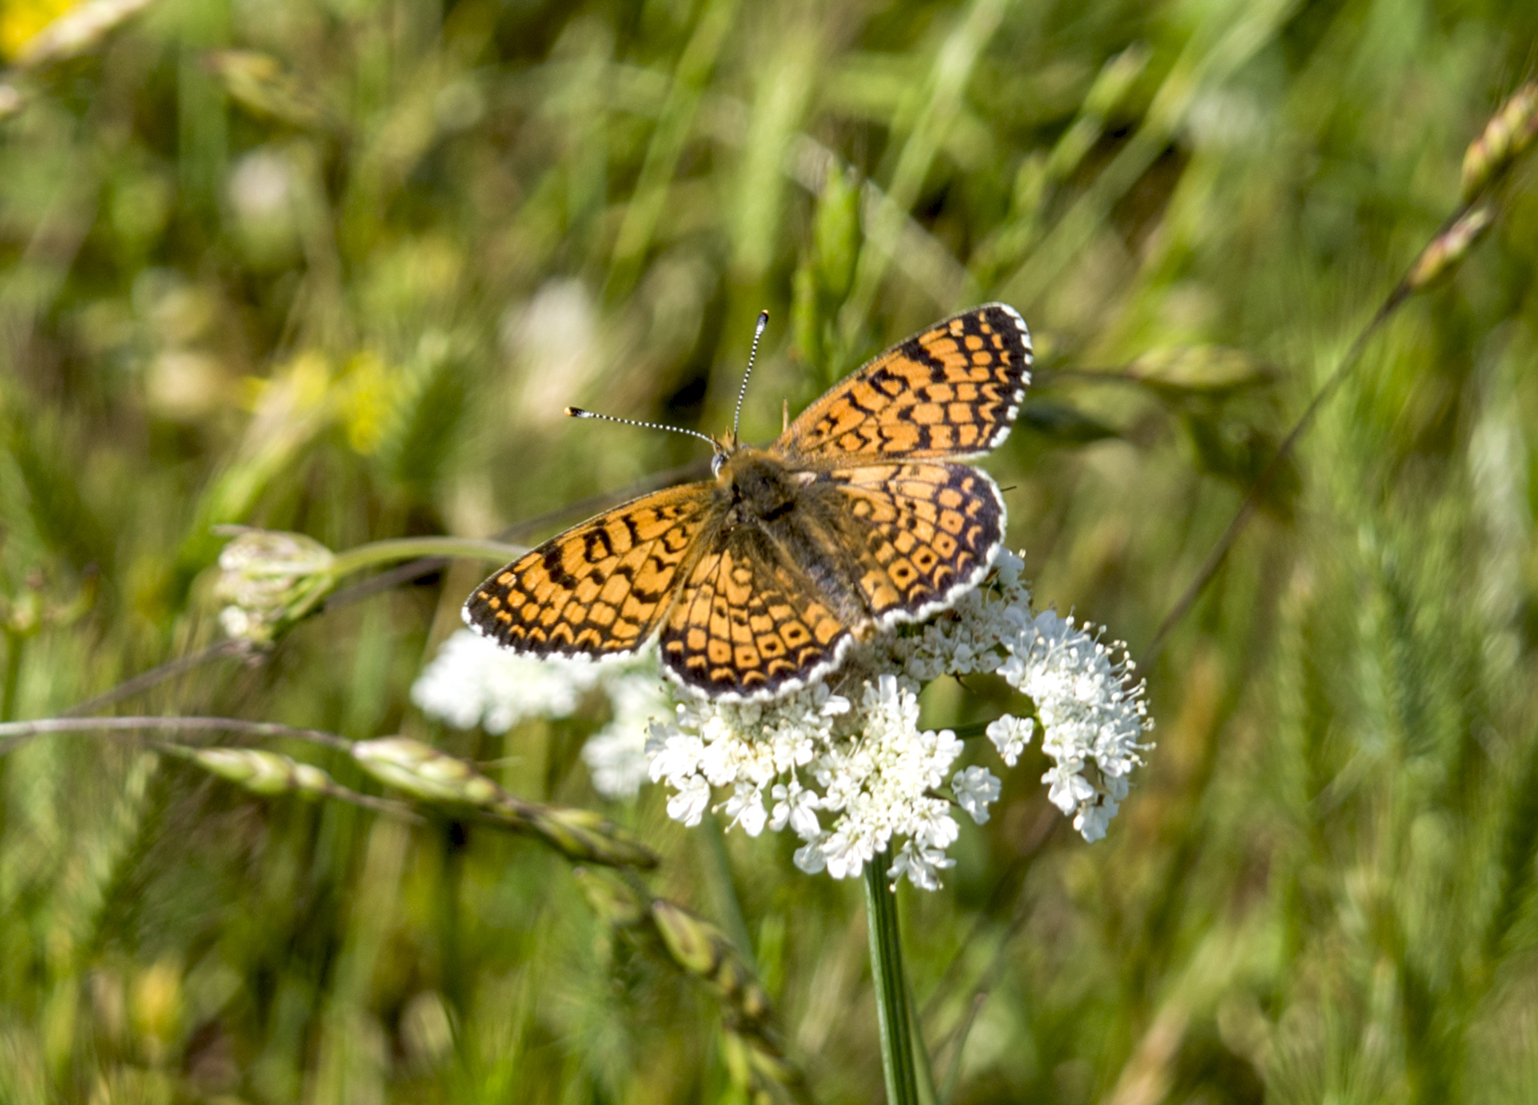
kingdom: Animalia
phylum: Arthropoda
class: Insecta
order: Lepidoptera
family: Nymphalidae
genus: Melitaea
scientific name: Melitaea cinxia
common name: Glanville fritillary
